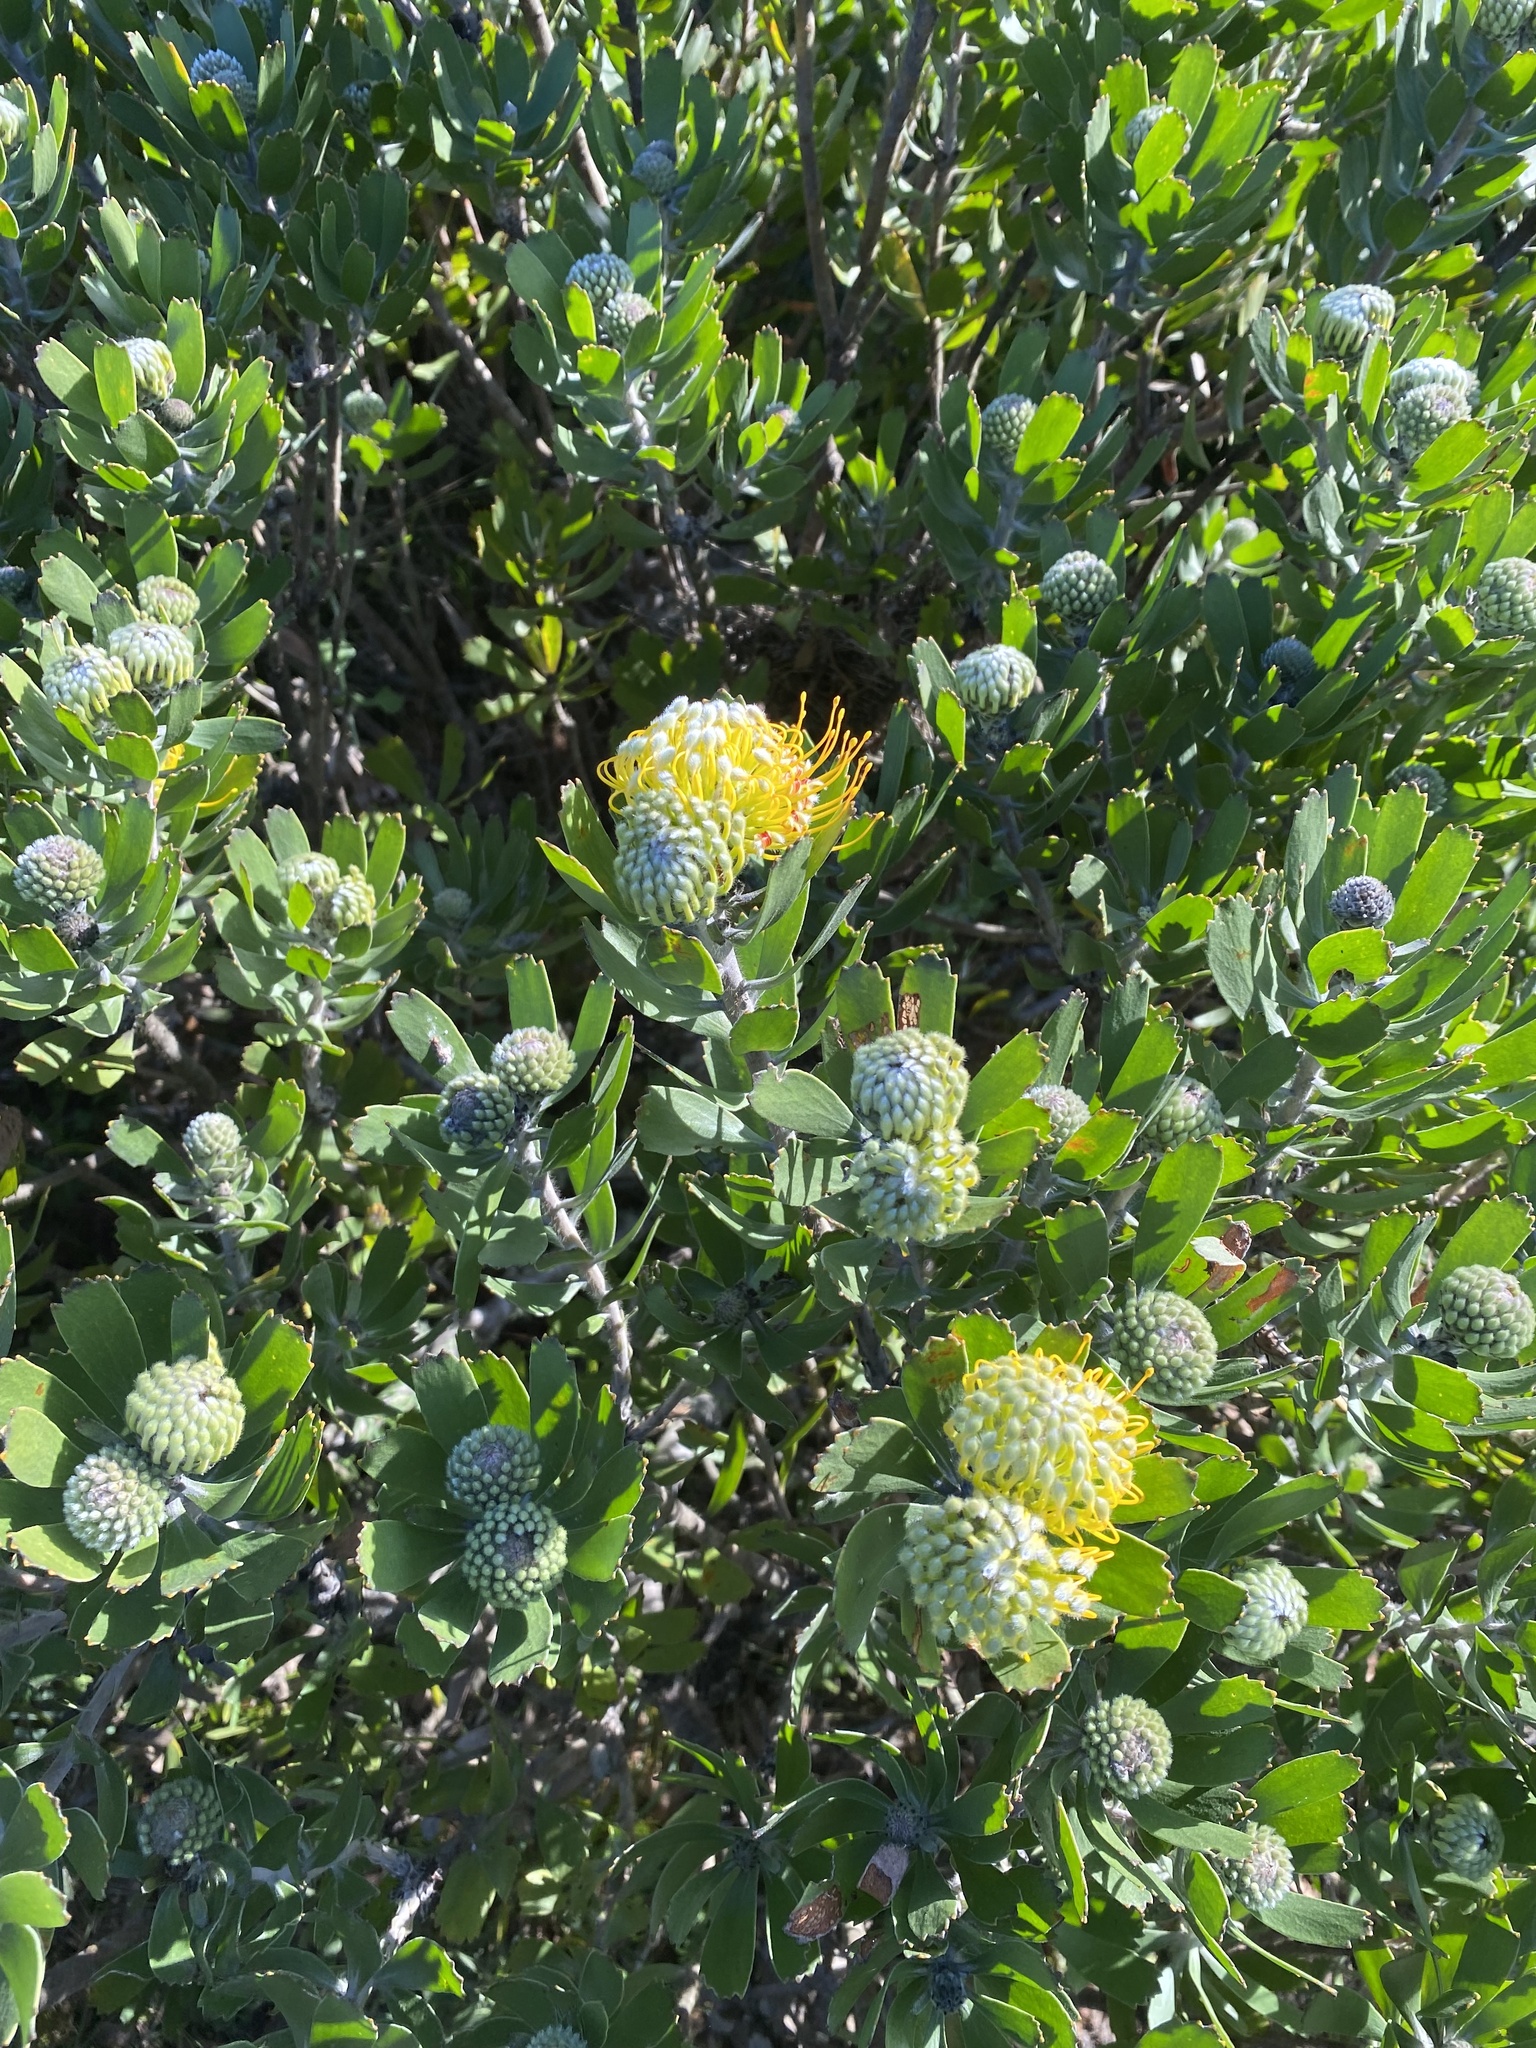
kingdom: Plantae
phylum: Tracheophyta
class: Magnoliopsida
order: Proteales
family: Proteaceae
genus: Leucospermum
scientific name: Leucospermum praecox
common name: Mossel bay pincushion
